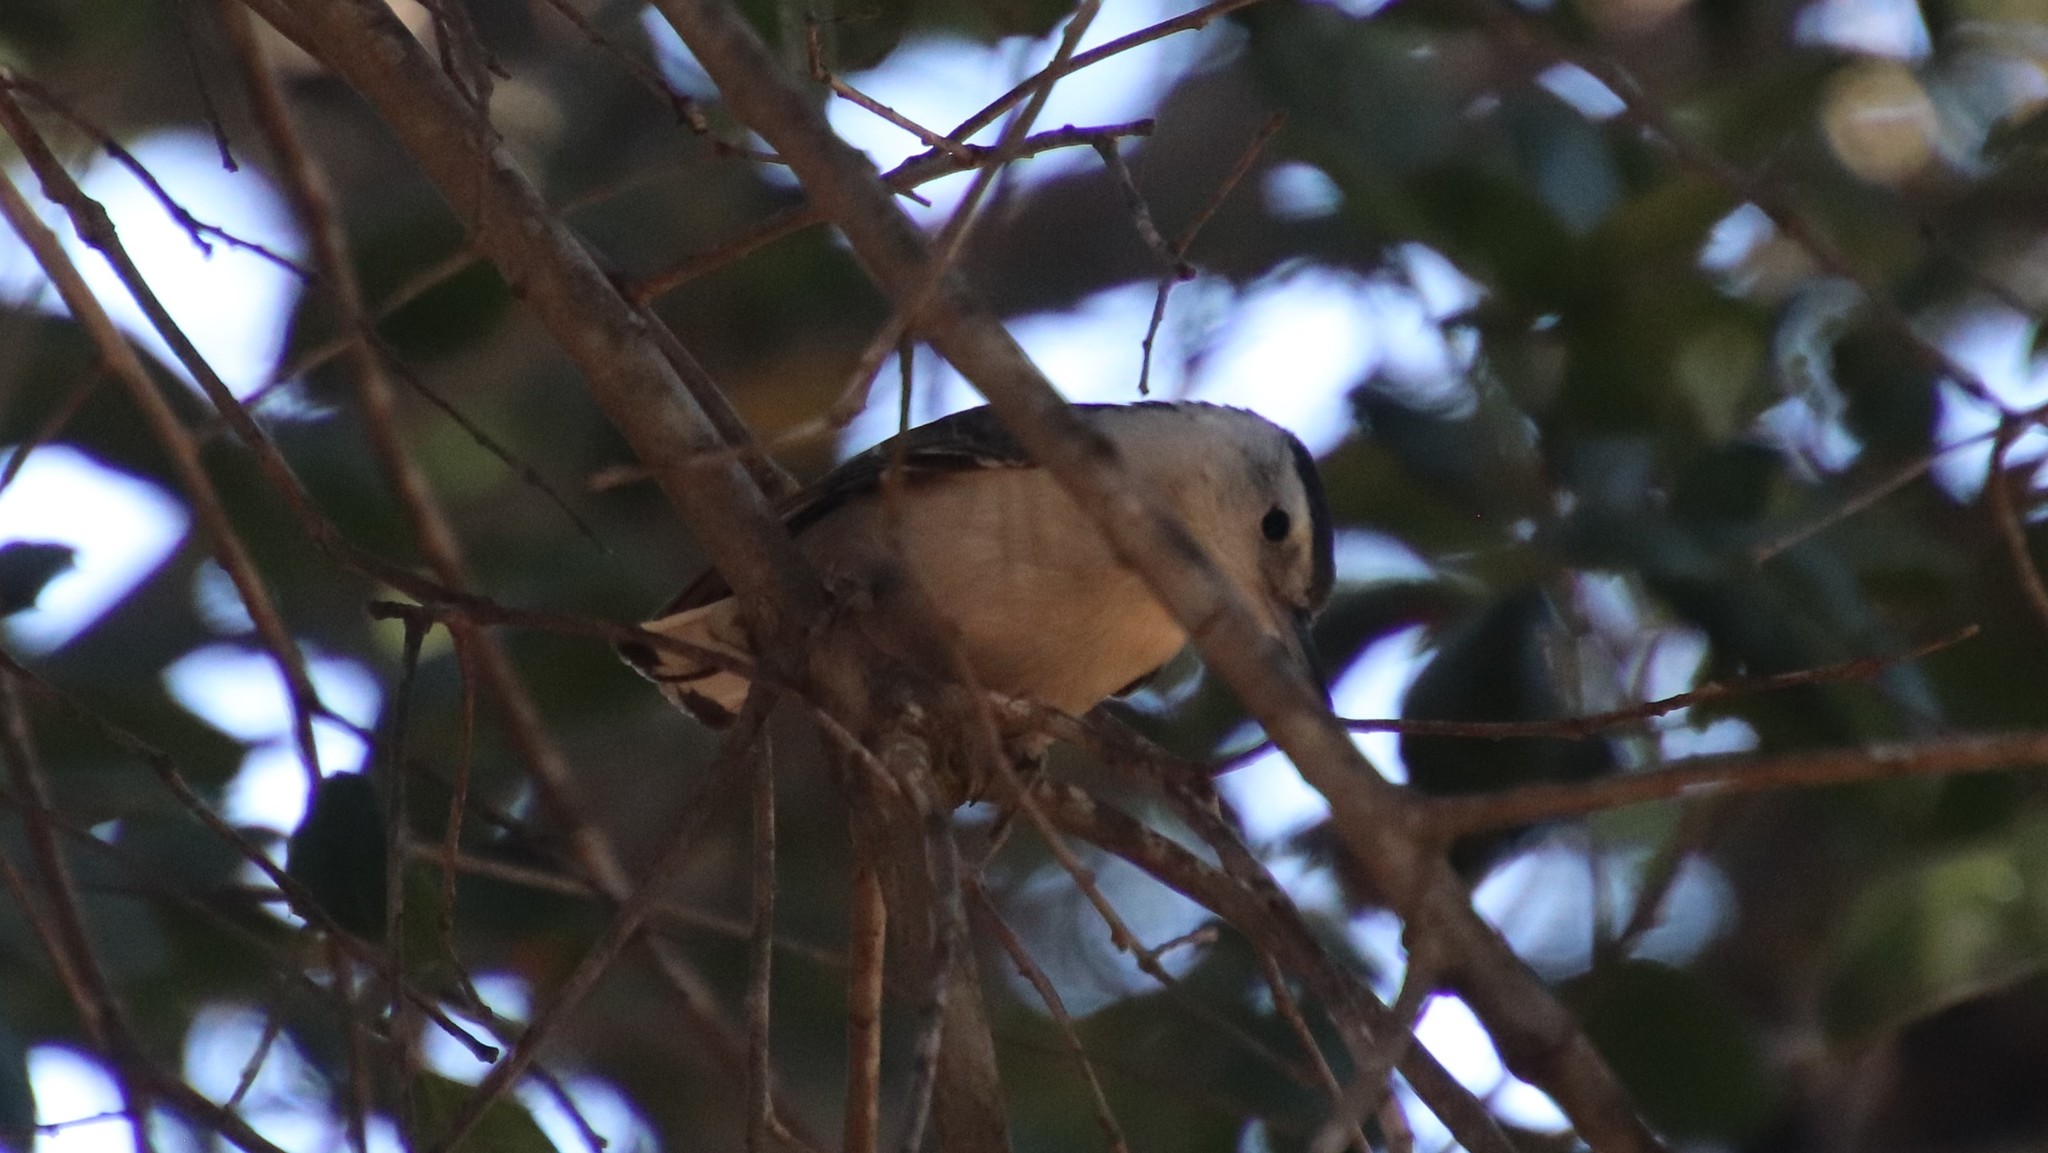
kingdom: Animalia
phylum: Chordata
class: Aves
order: Passeriformes
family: Sittidae
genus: Sitta
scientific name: Sitta carolinensis
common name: White-breasted nuthatch
